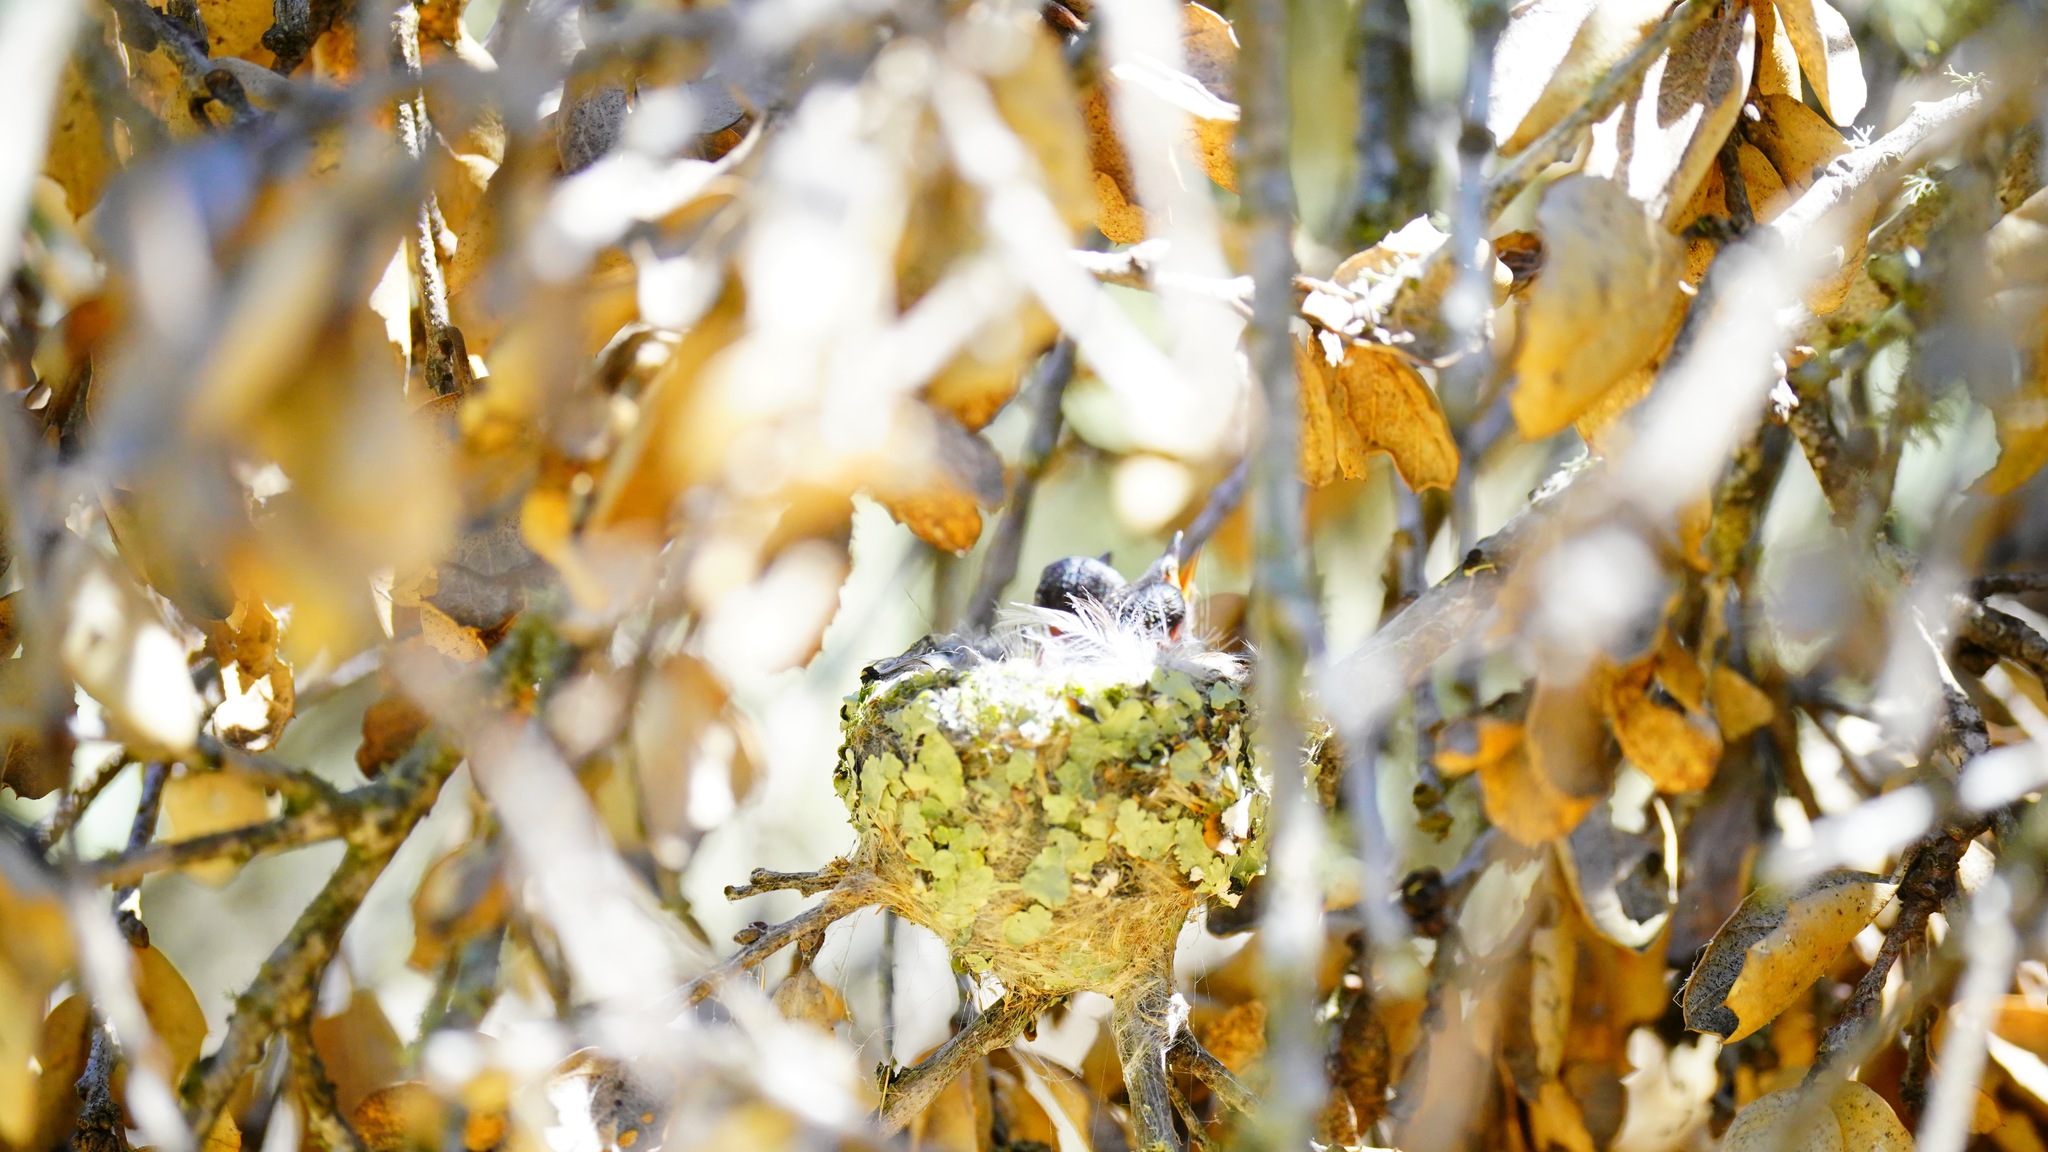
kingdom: Animalia
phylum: Chordata
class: Aves
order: Apodiformes
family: Trochilidae
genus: Calypte
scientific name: Calypte anna
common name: Anna's hummingbird
